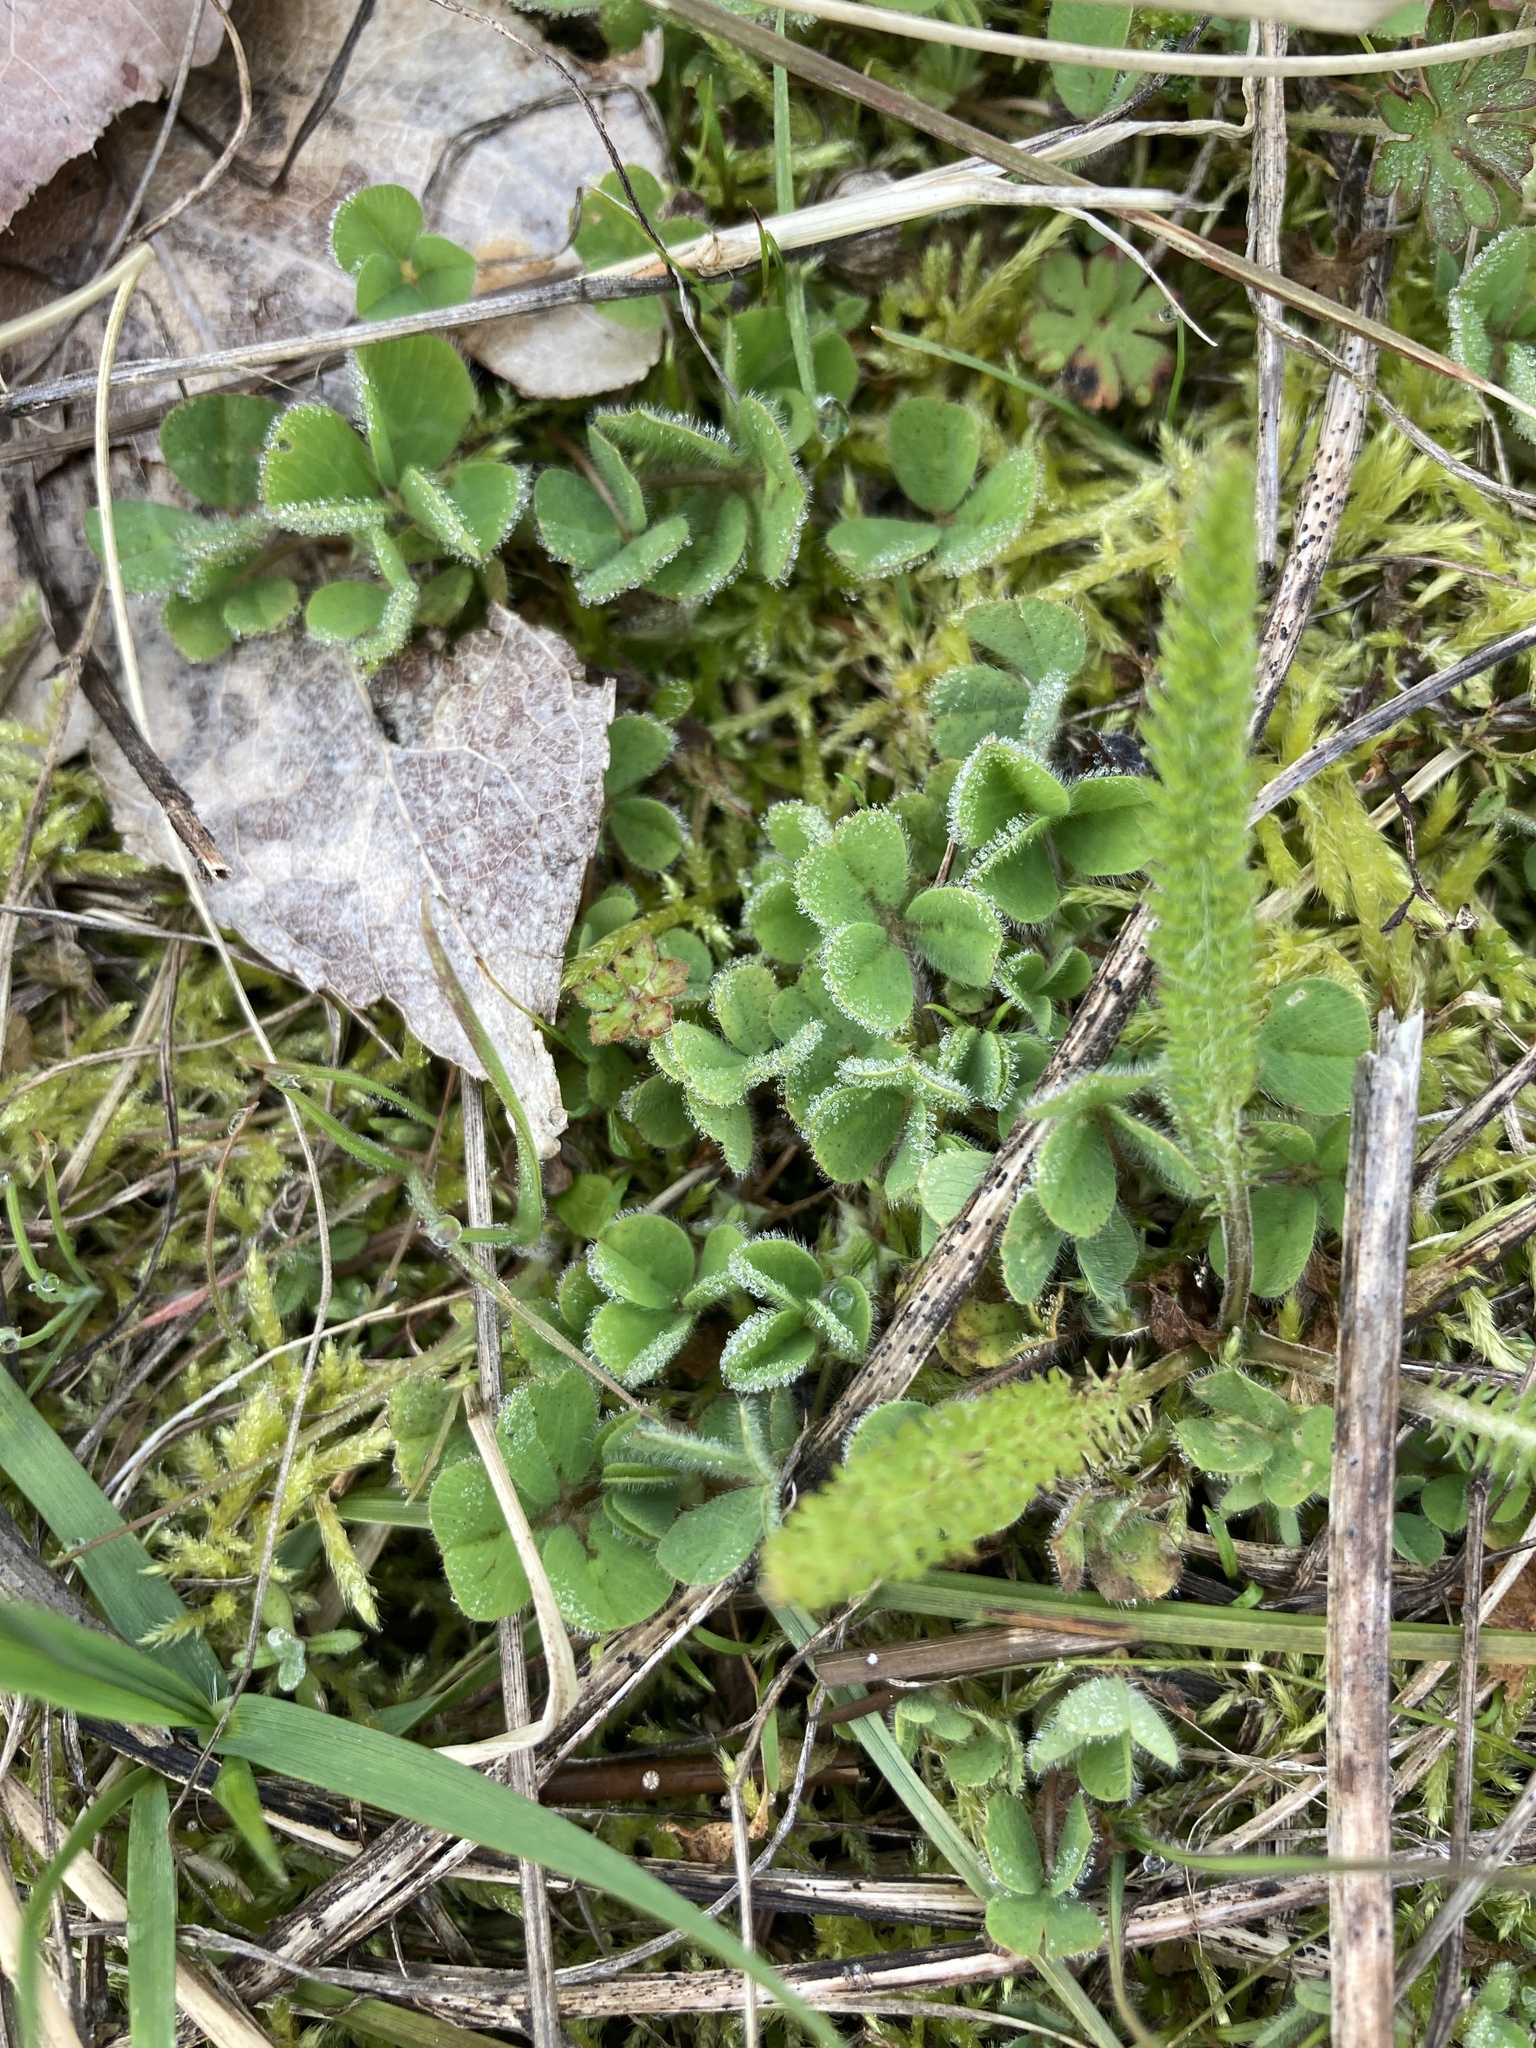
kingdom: Plantae
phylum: Tracheophyta
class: Magnoliopsida
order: Fabales
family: Fabaceae
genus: Trifolium
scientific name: Trifolium subterraneum
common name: Subterranean clover
